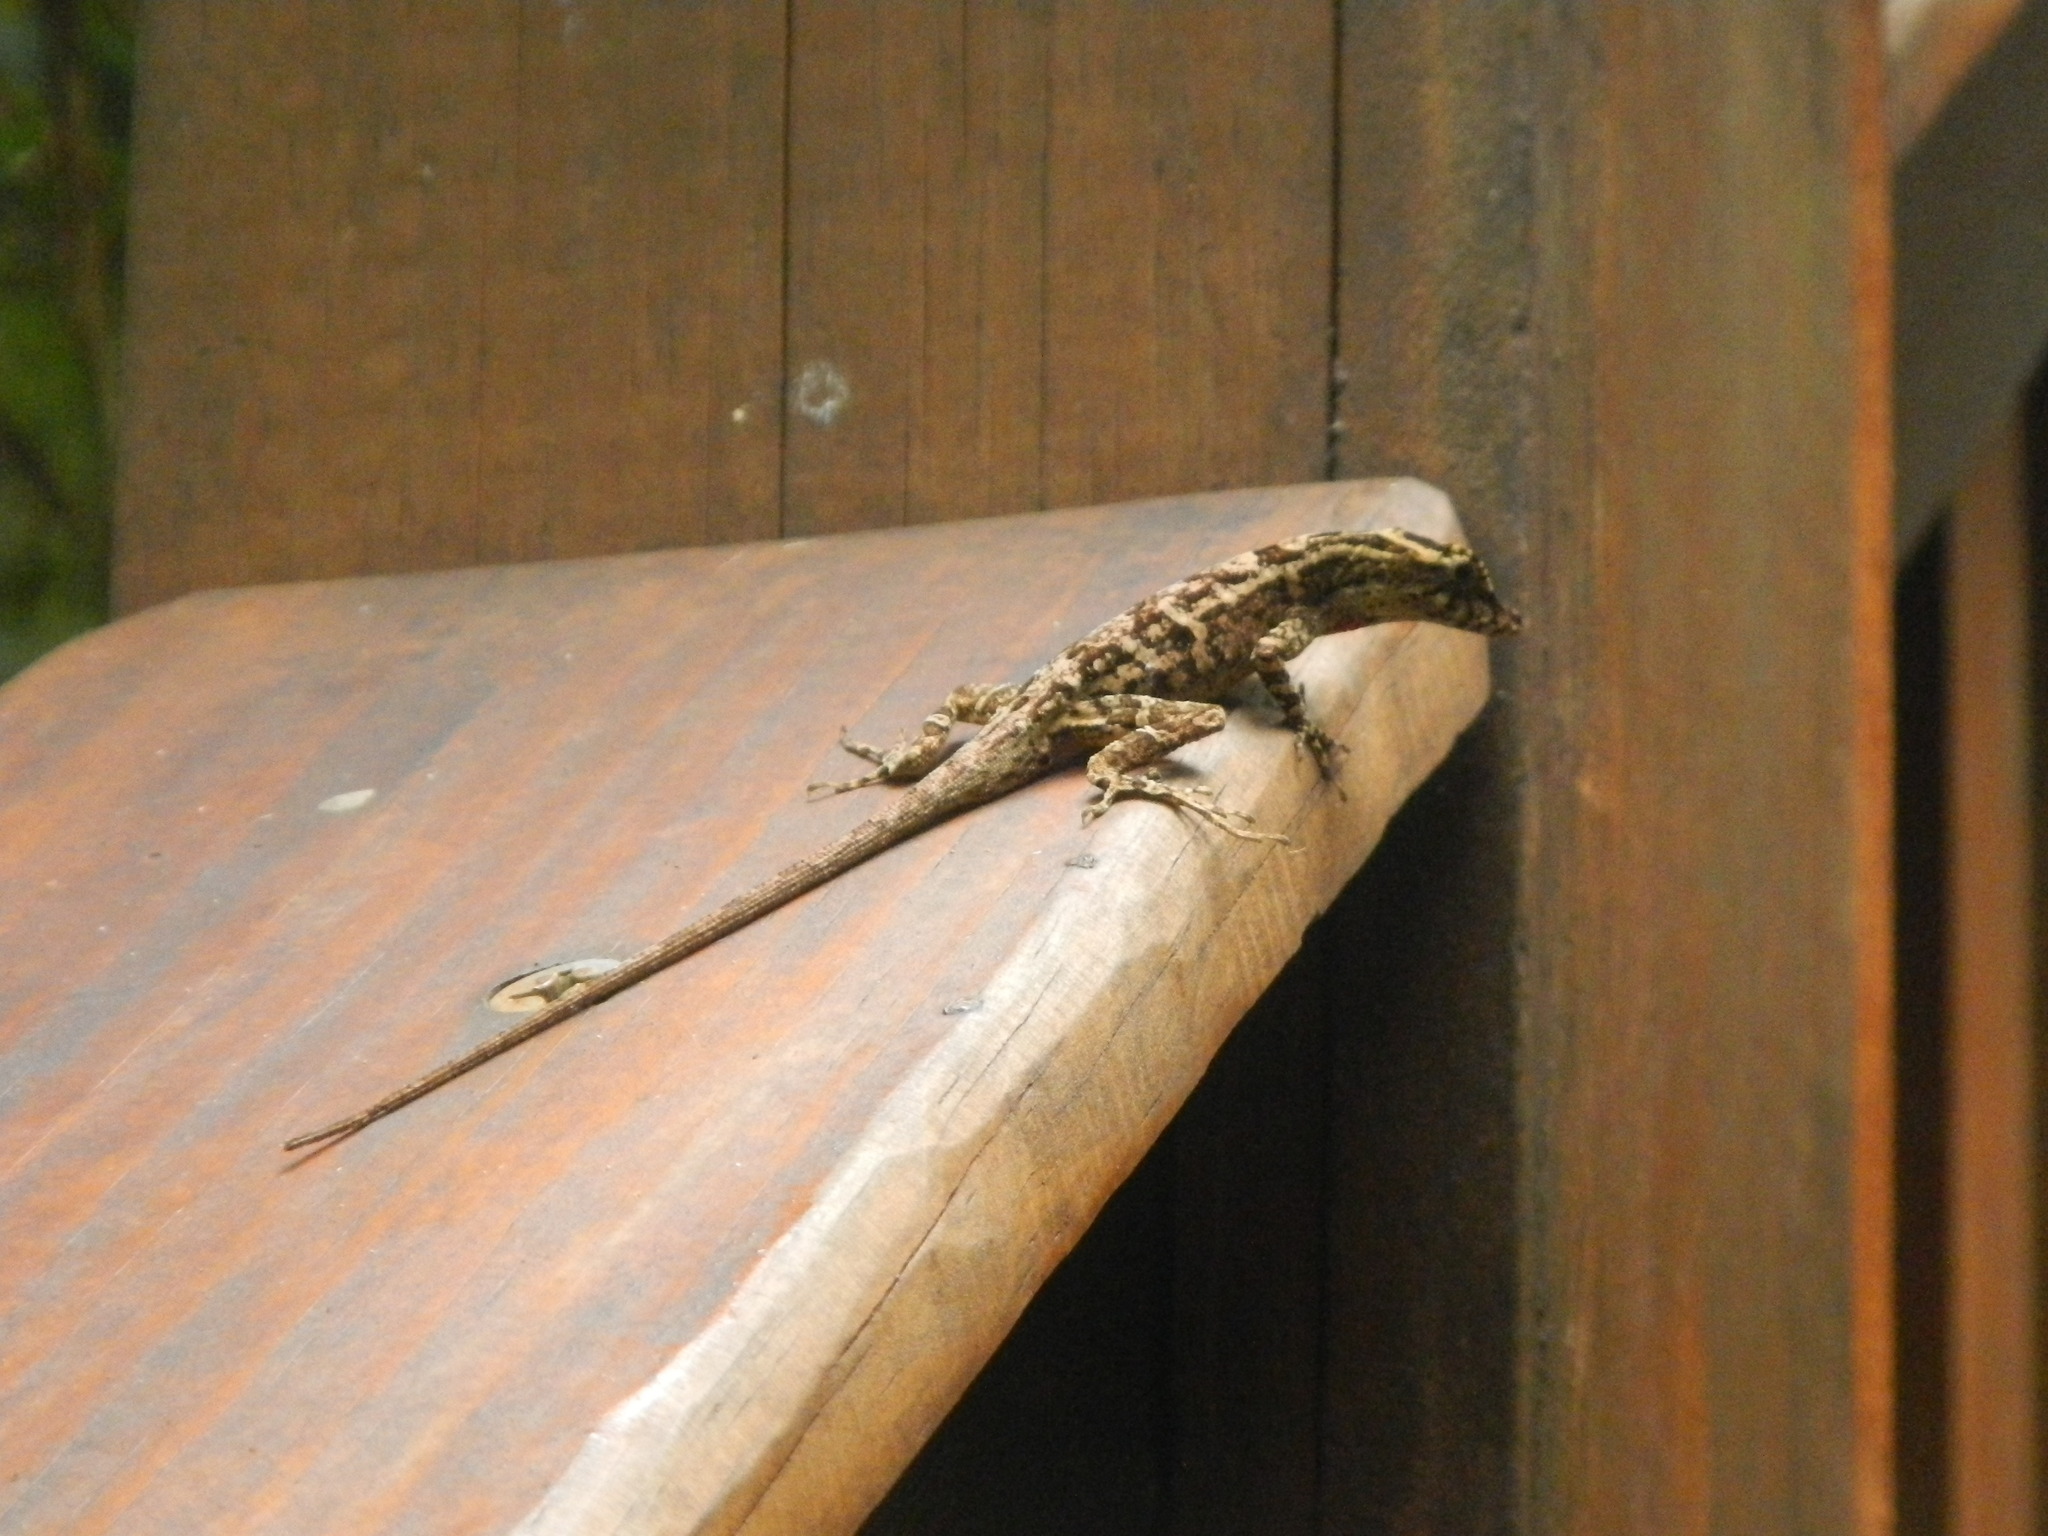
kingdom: Animalia
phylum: Chordata
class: Squamata
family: Dactyloidae
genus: Anolis
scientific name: Anolis lemurinus
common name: Ghost anole
